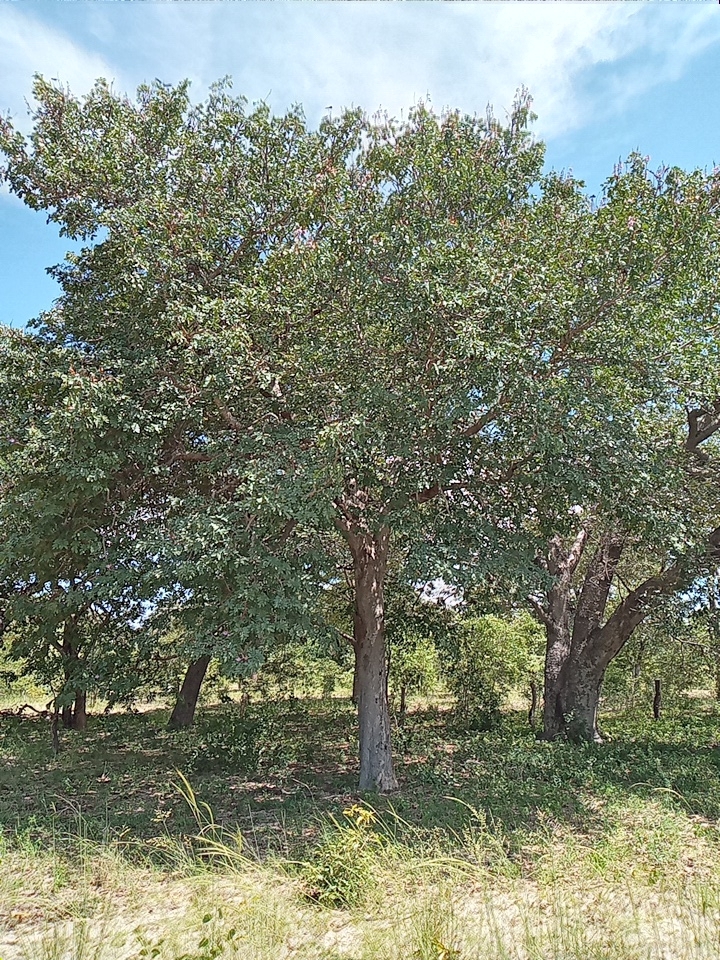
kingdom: Plantae
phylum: Tracheophyta
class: Magnoliopsida
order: Fabales
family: Fabaceae
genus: Baikiaea
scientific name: Baikiaea plurijuga
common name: Rhodesian-teak
